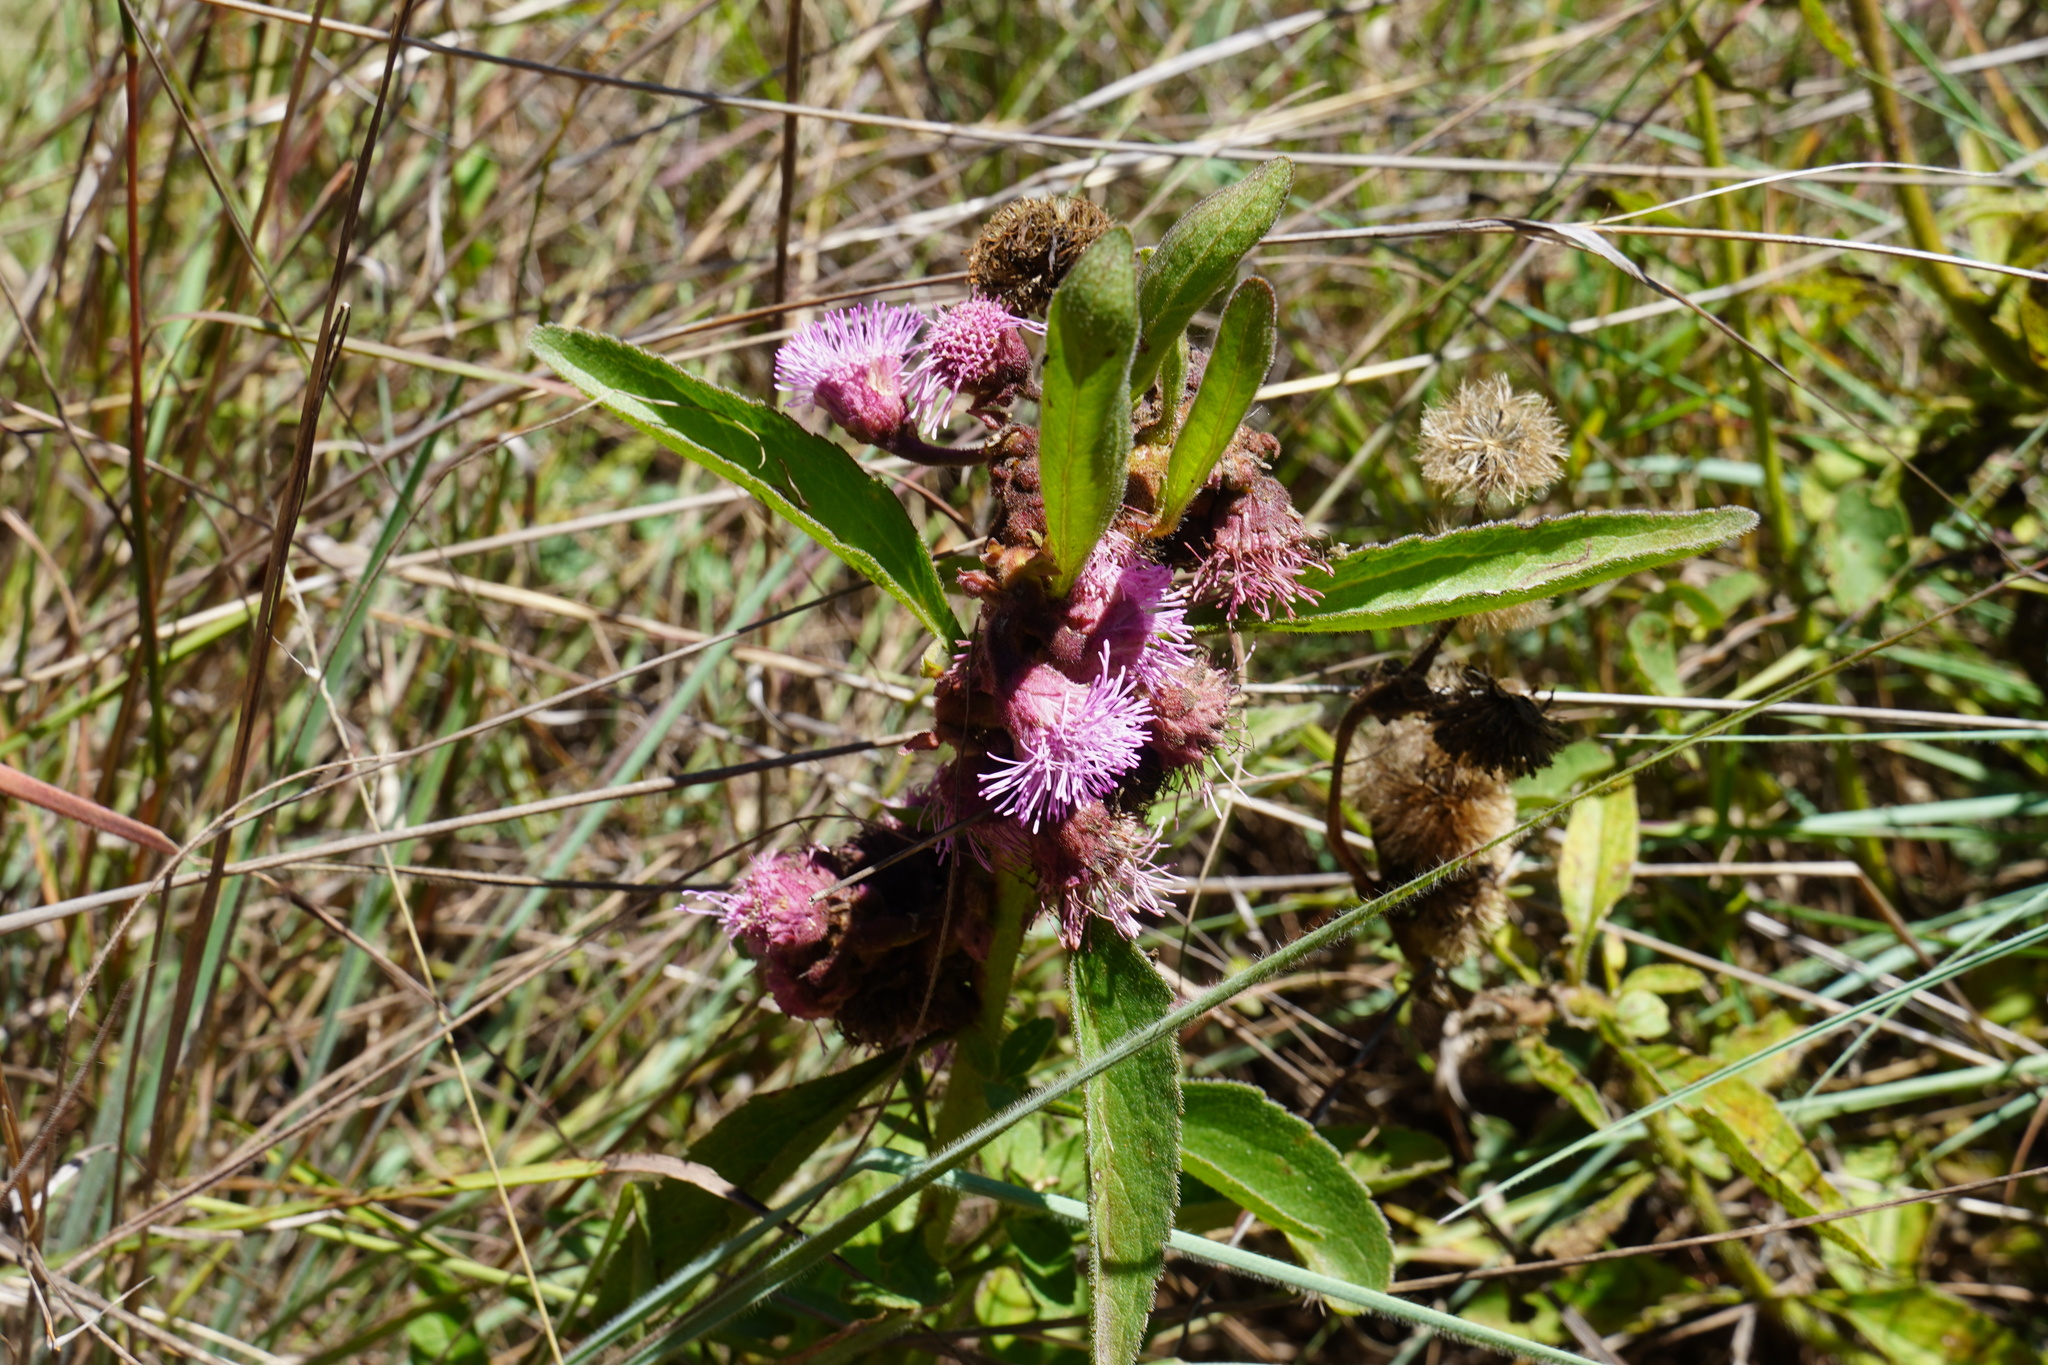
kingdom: Plantae
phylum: Tracheophyta
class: Magnoliopsida
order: Asterales
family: Asteraceae
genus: Campuloclinium
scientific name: Campuloclinium macrocephalum
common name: Pompomweed
